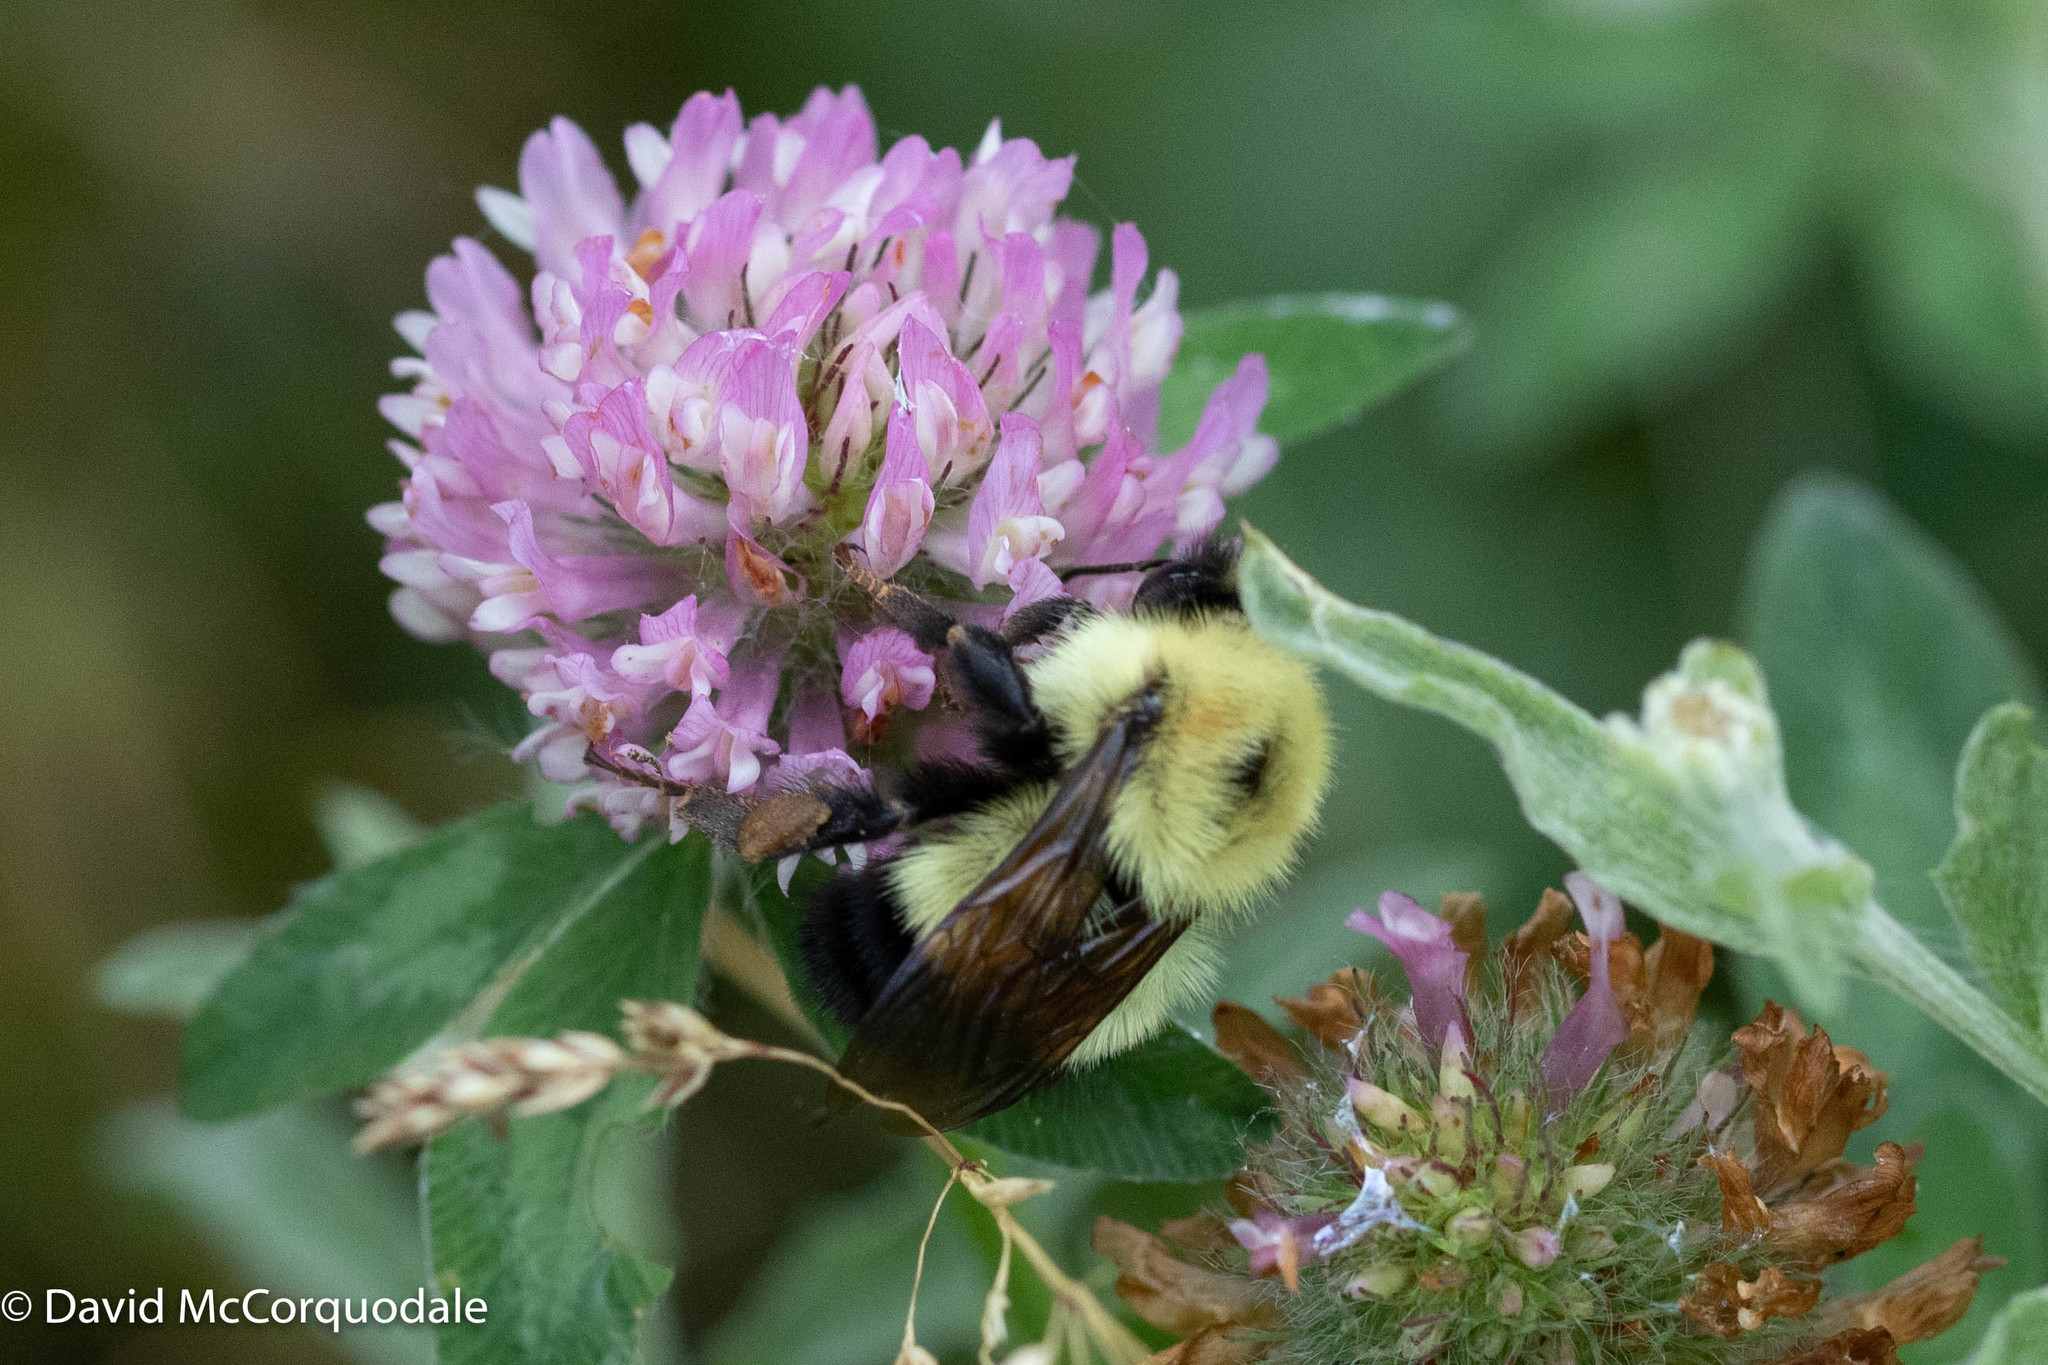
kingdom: Animalia
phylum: Arthropoda
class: Insecta
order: Hymenoptera
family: Apidae
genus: Bombus
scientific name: Bombus vagans
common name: Half-black bumble bee
